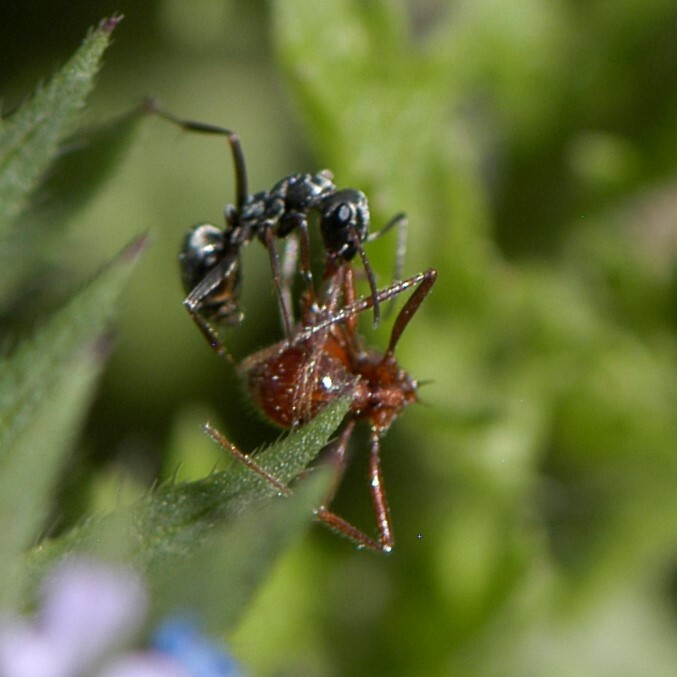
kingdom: Animalia
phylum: Arthropoda
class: Insecta
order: Hymenoptera
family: Formicidae
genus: Formica
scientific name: Formica
